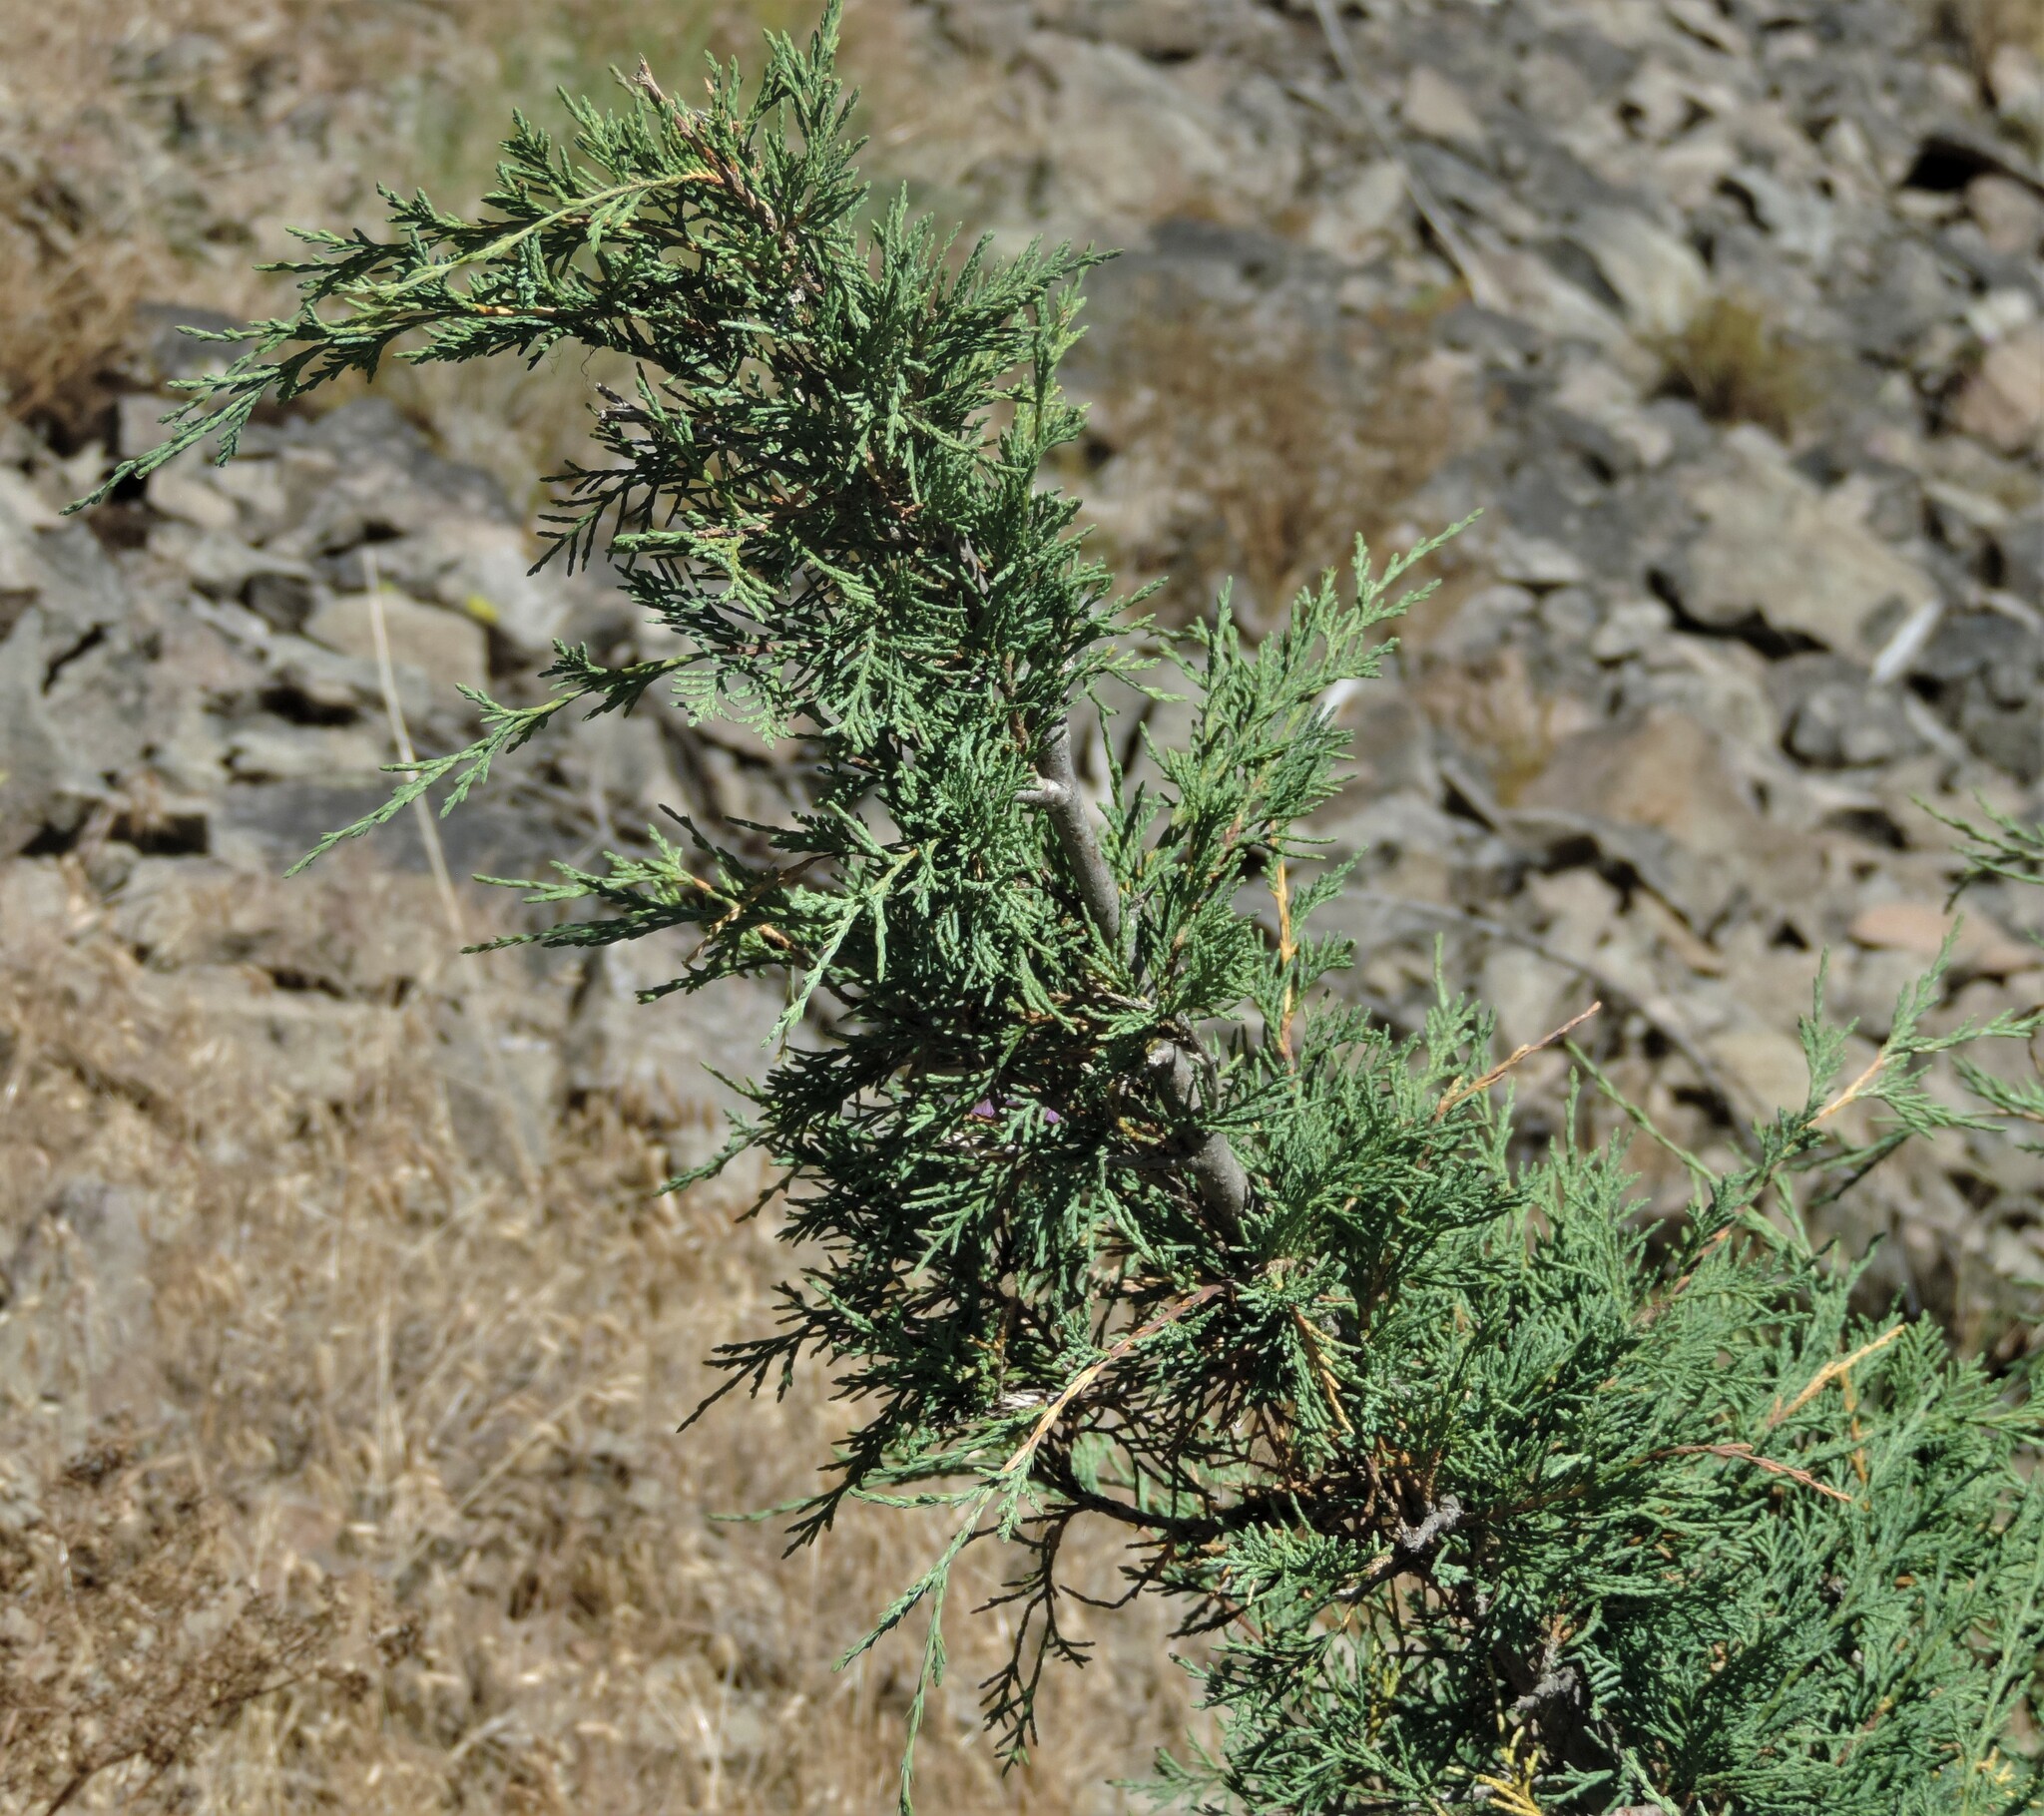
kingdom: Plantae
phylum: Tracheophyta
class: Pinopsida
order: Pinales
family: Cupressaceae
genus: Juniperus
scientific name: Juniperus scopulorum
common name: Rocky mountain juniper
